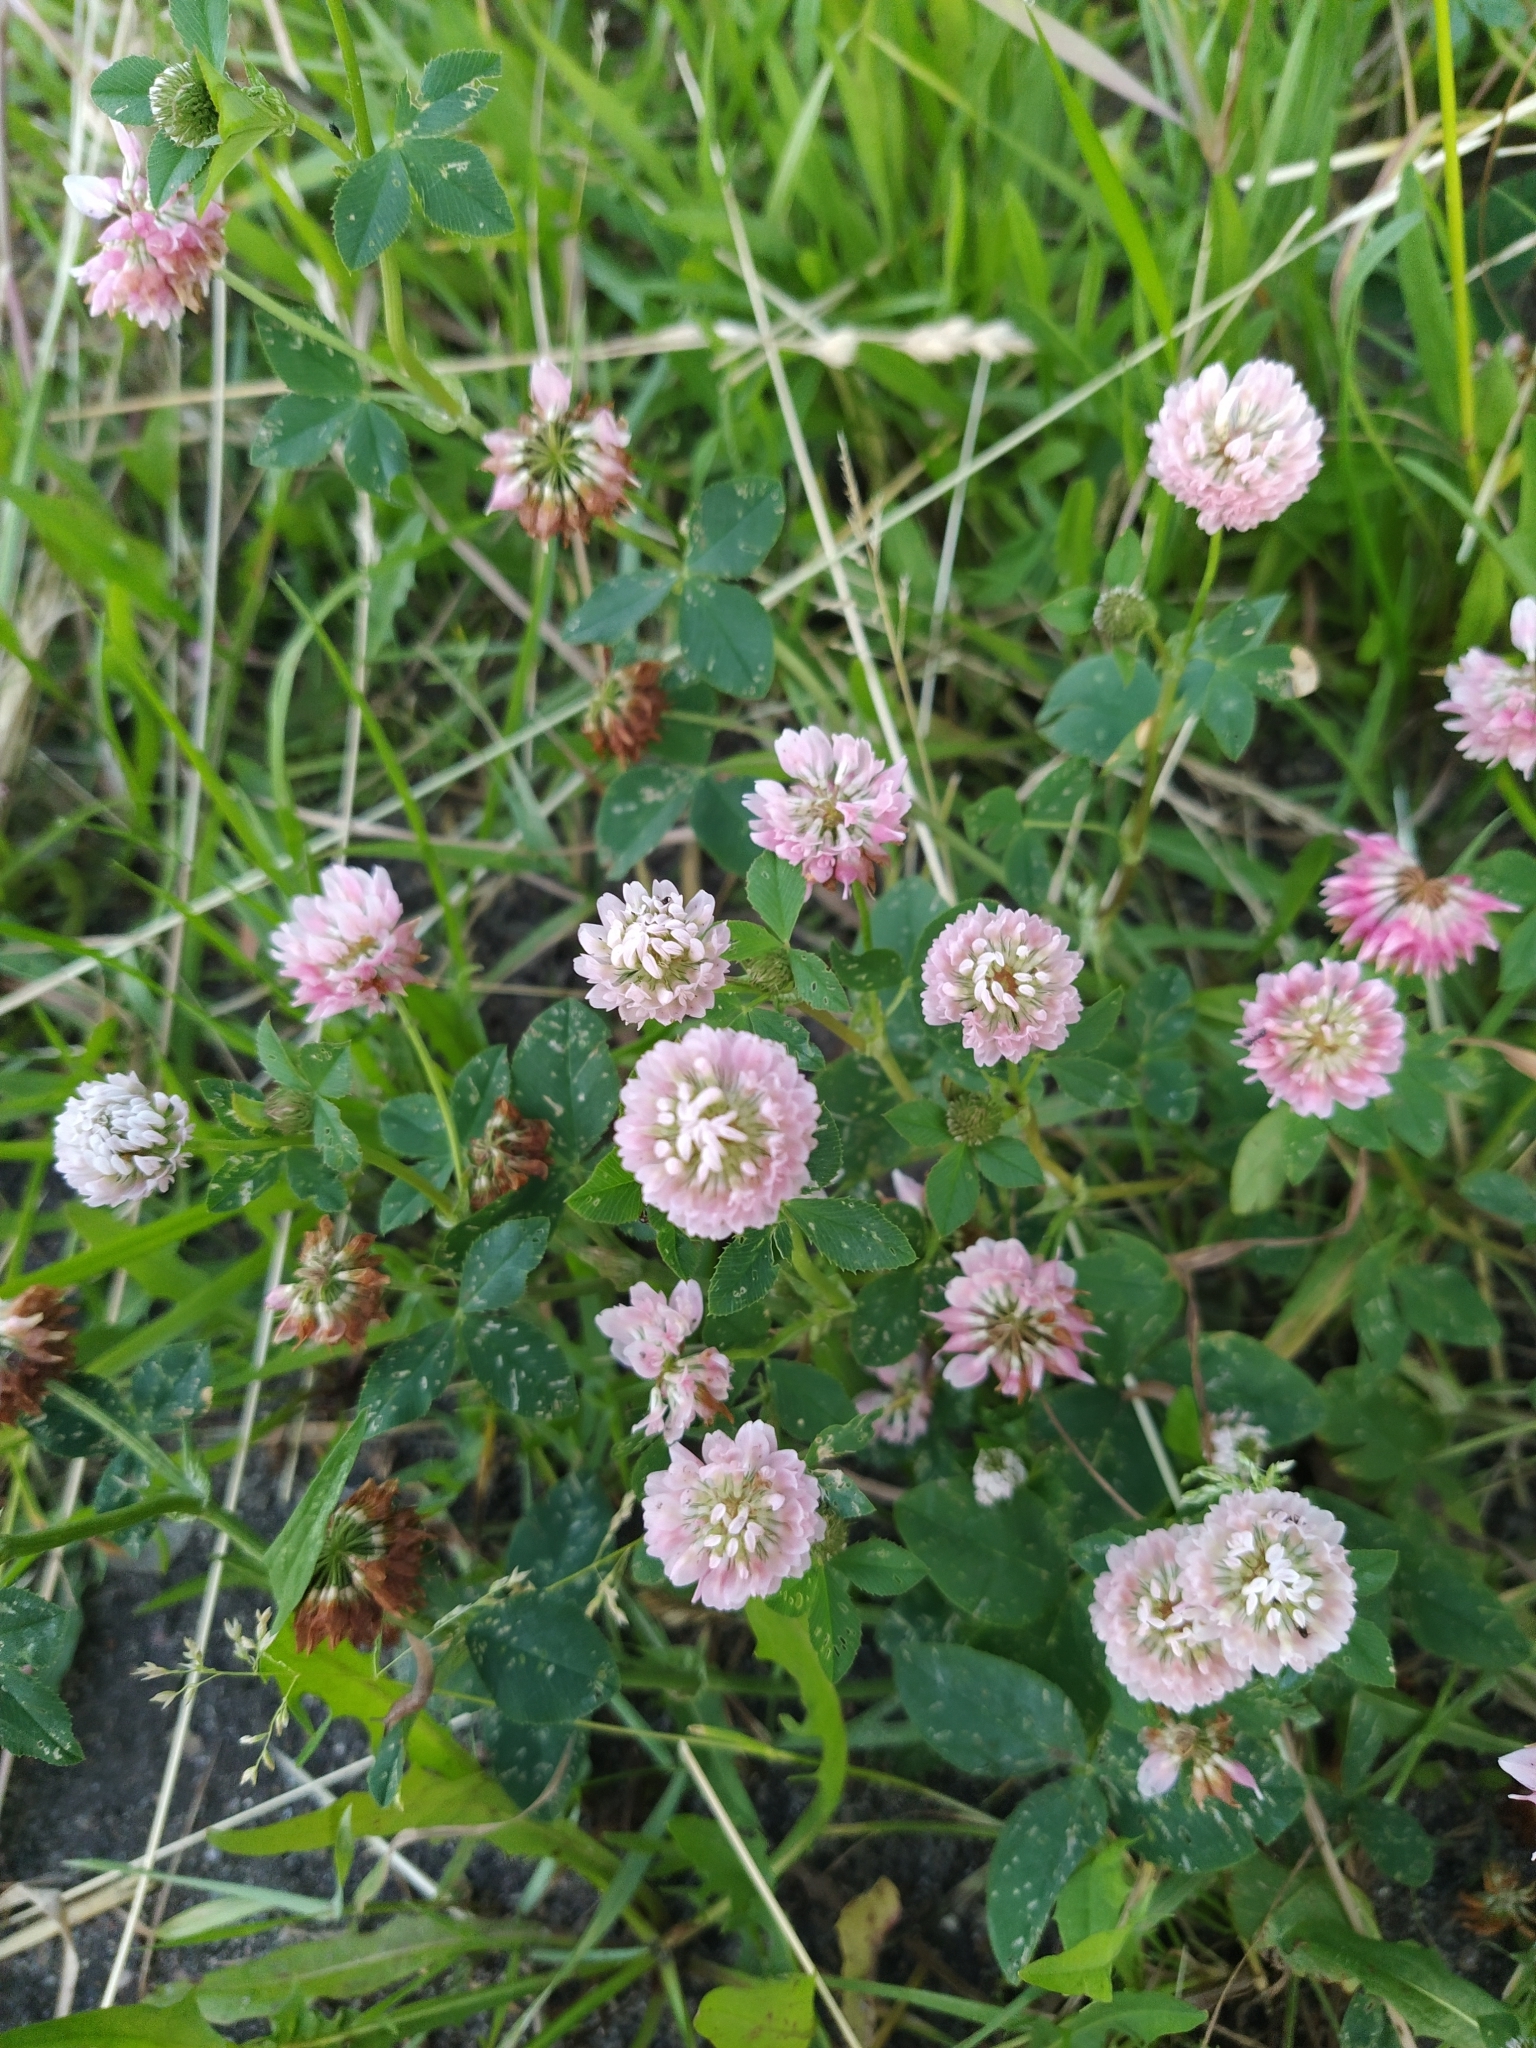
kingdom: Plantae
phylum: Tracheophyta
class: Magnoliopsida
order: Fabales
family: Fabaceae
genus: Trifolium
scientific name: Trifolium hybridum
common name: Alsike clover
